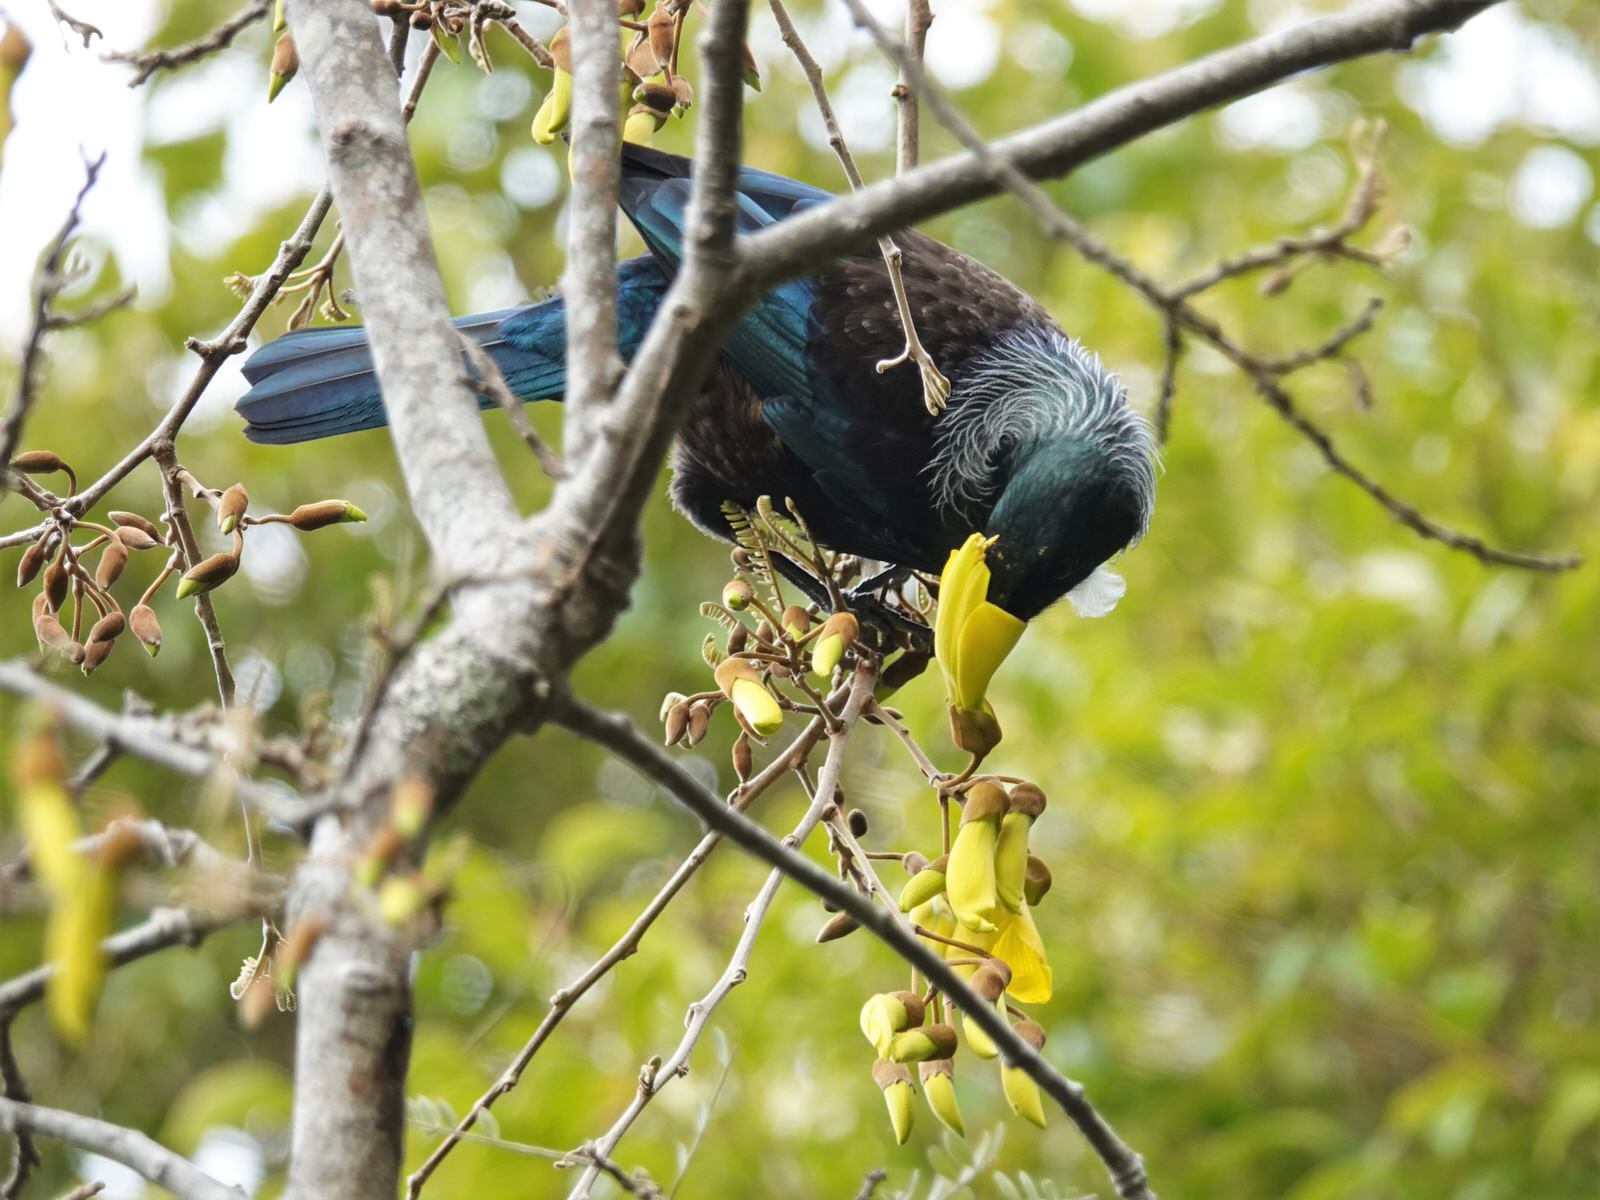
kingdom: Animalia
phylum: Chordata
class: Aves
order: Passeriformes
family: Meliphagidae
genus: Prosthemadera
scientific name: Prosthemadera novaeseelandiae
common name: Tui
